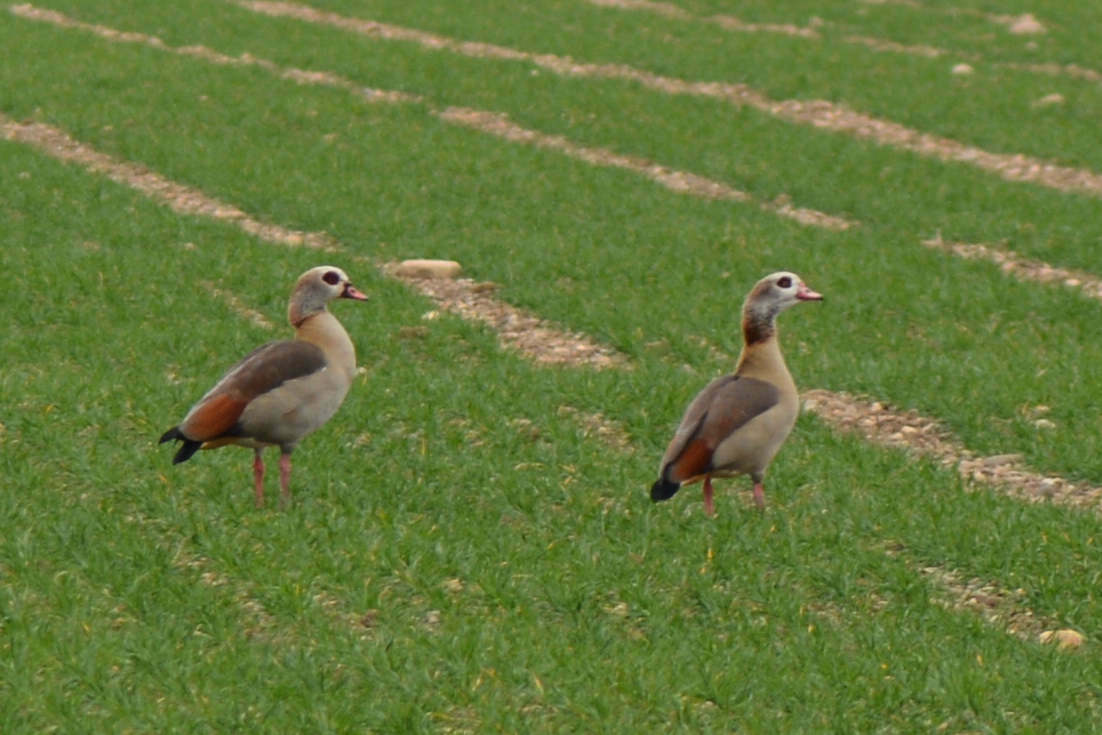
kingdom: Animalia
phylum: Chordata
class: Aves
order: Anseriformes
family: Anatidae
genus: Alopochen
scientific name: Alopochen aegyptiaca
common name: Egyptian goose
